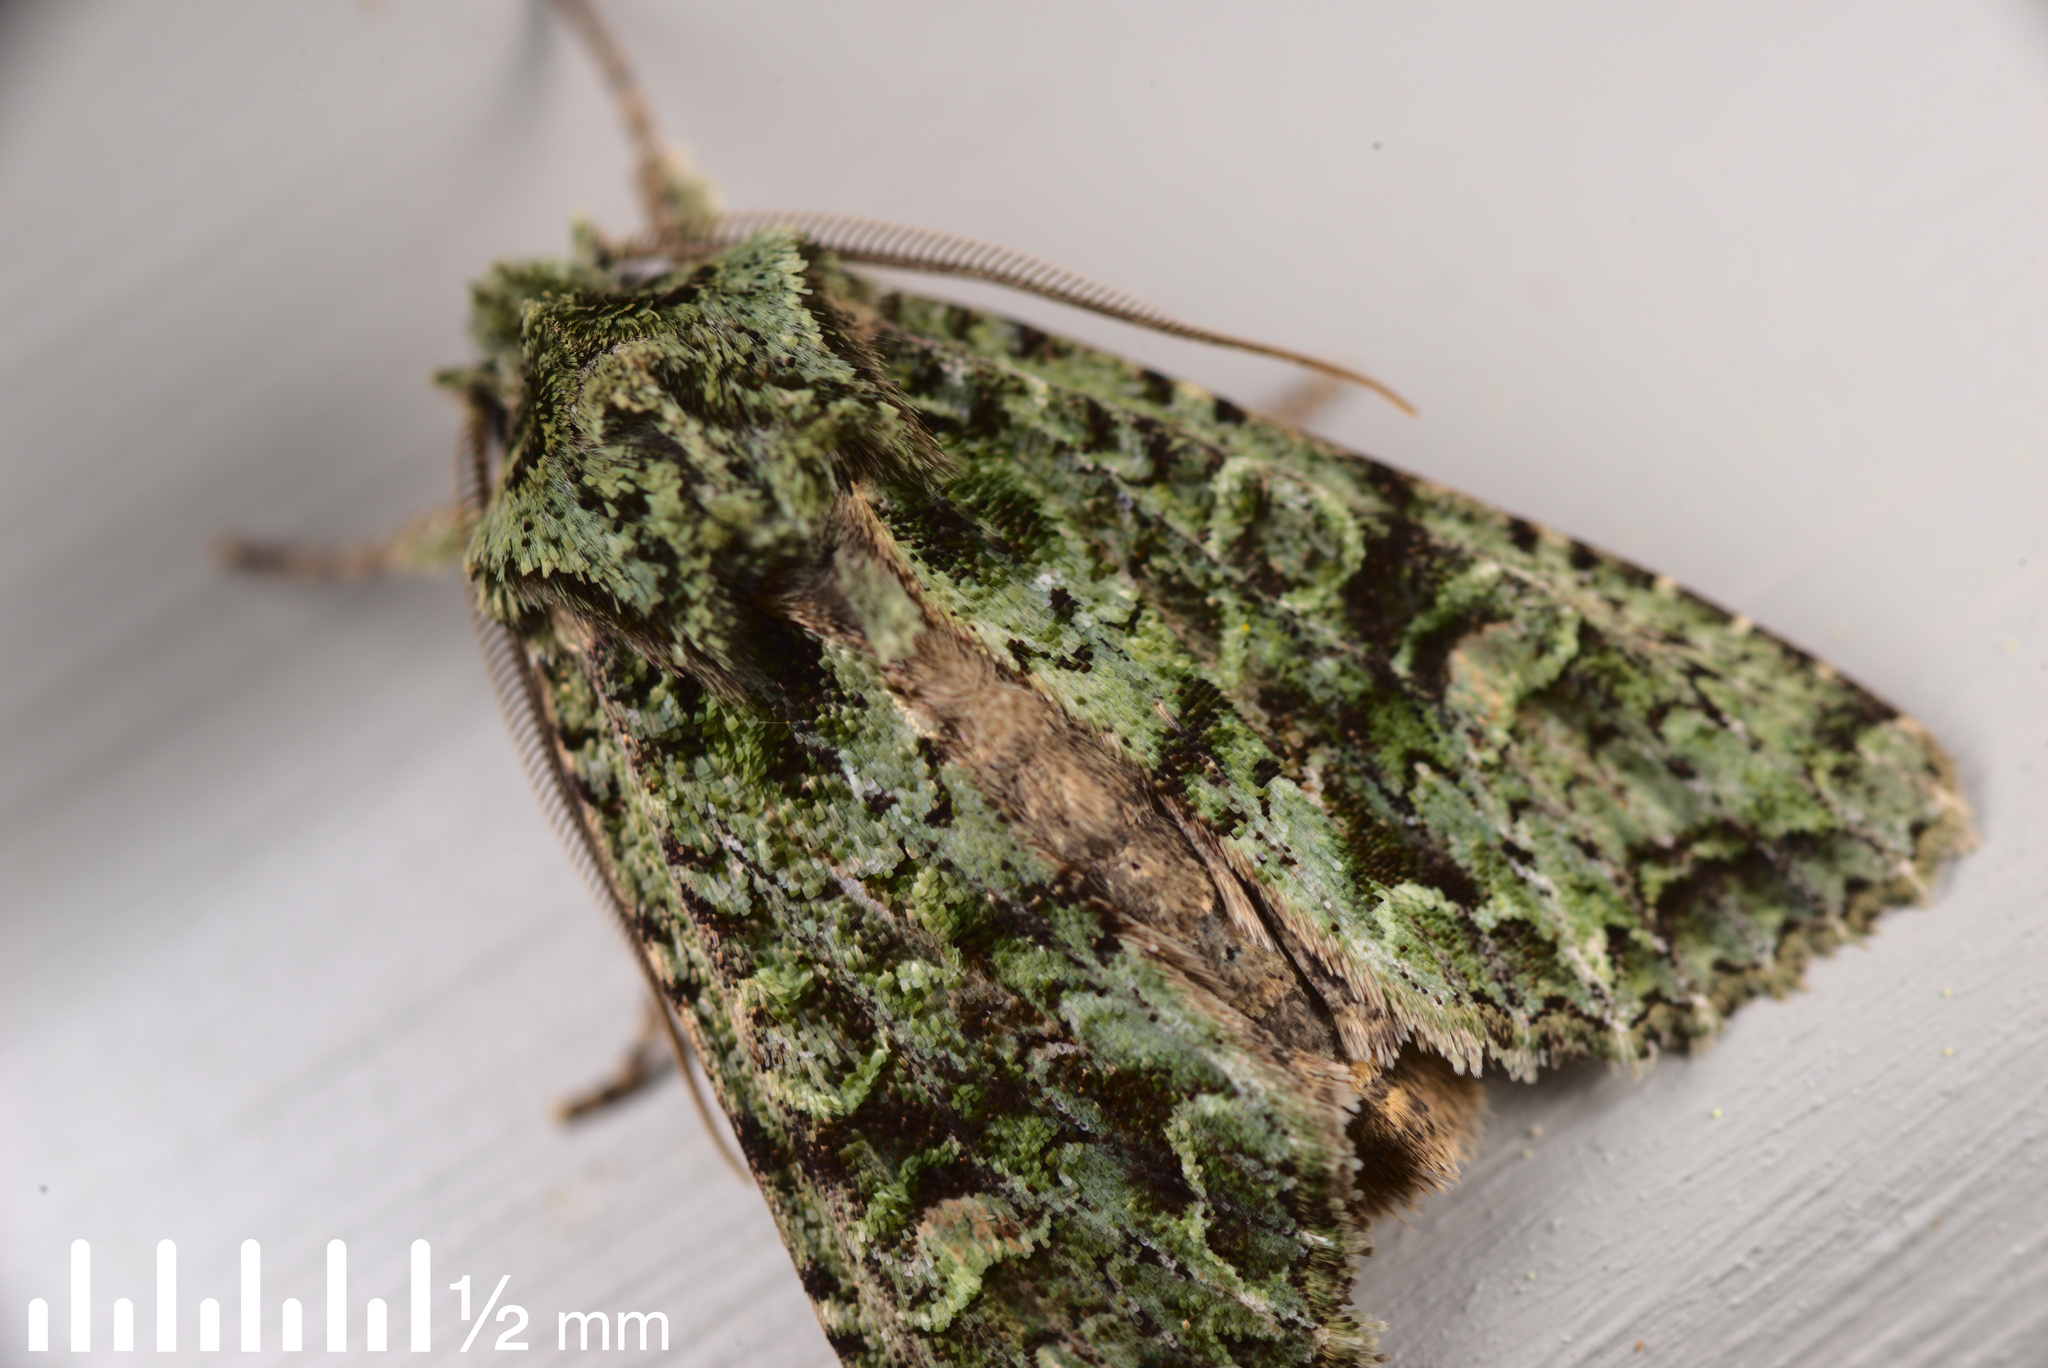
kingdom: Animalia
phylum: Arthropoda
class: Insecta
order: Lepidoptera
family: Noctuidae
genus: Ichneutica
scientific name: Ichneutica
